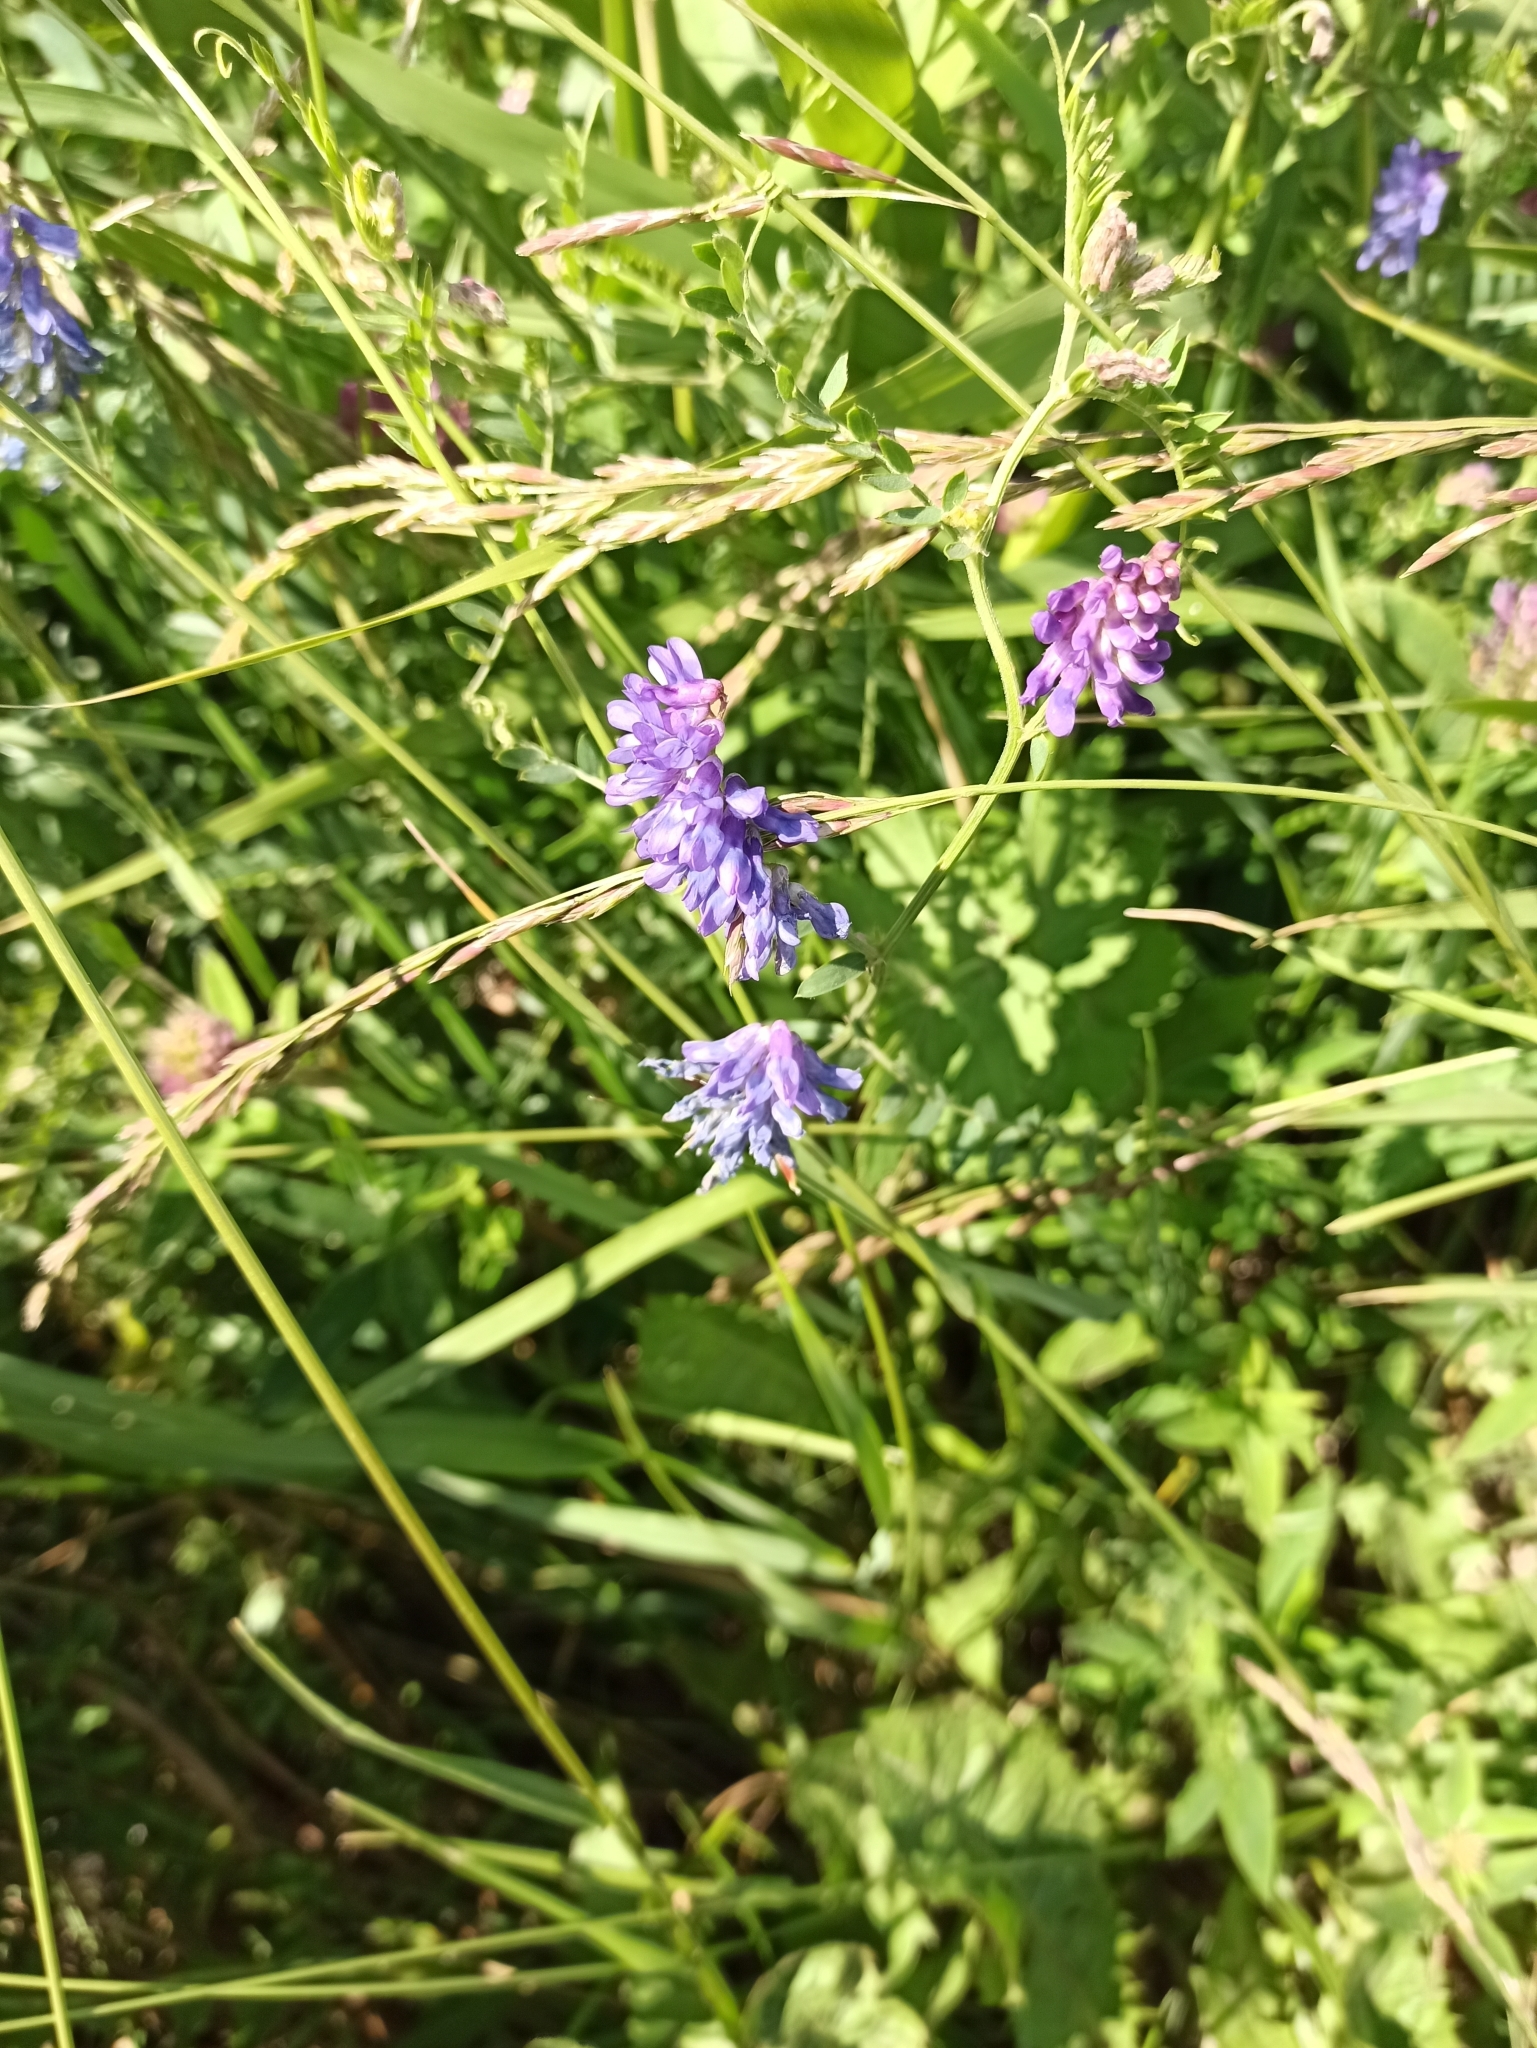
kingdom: Plantae
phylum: Tracheophyta
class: Magnoliopsida
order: Fabales
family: Fabaceae
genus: Vicia
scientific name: Vicia cracca
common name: Bird vetch
